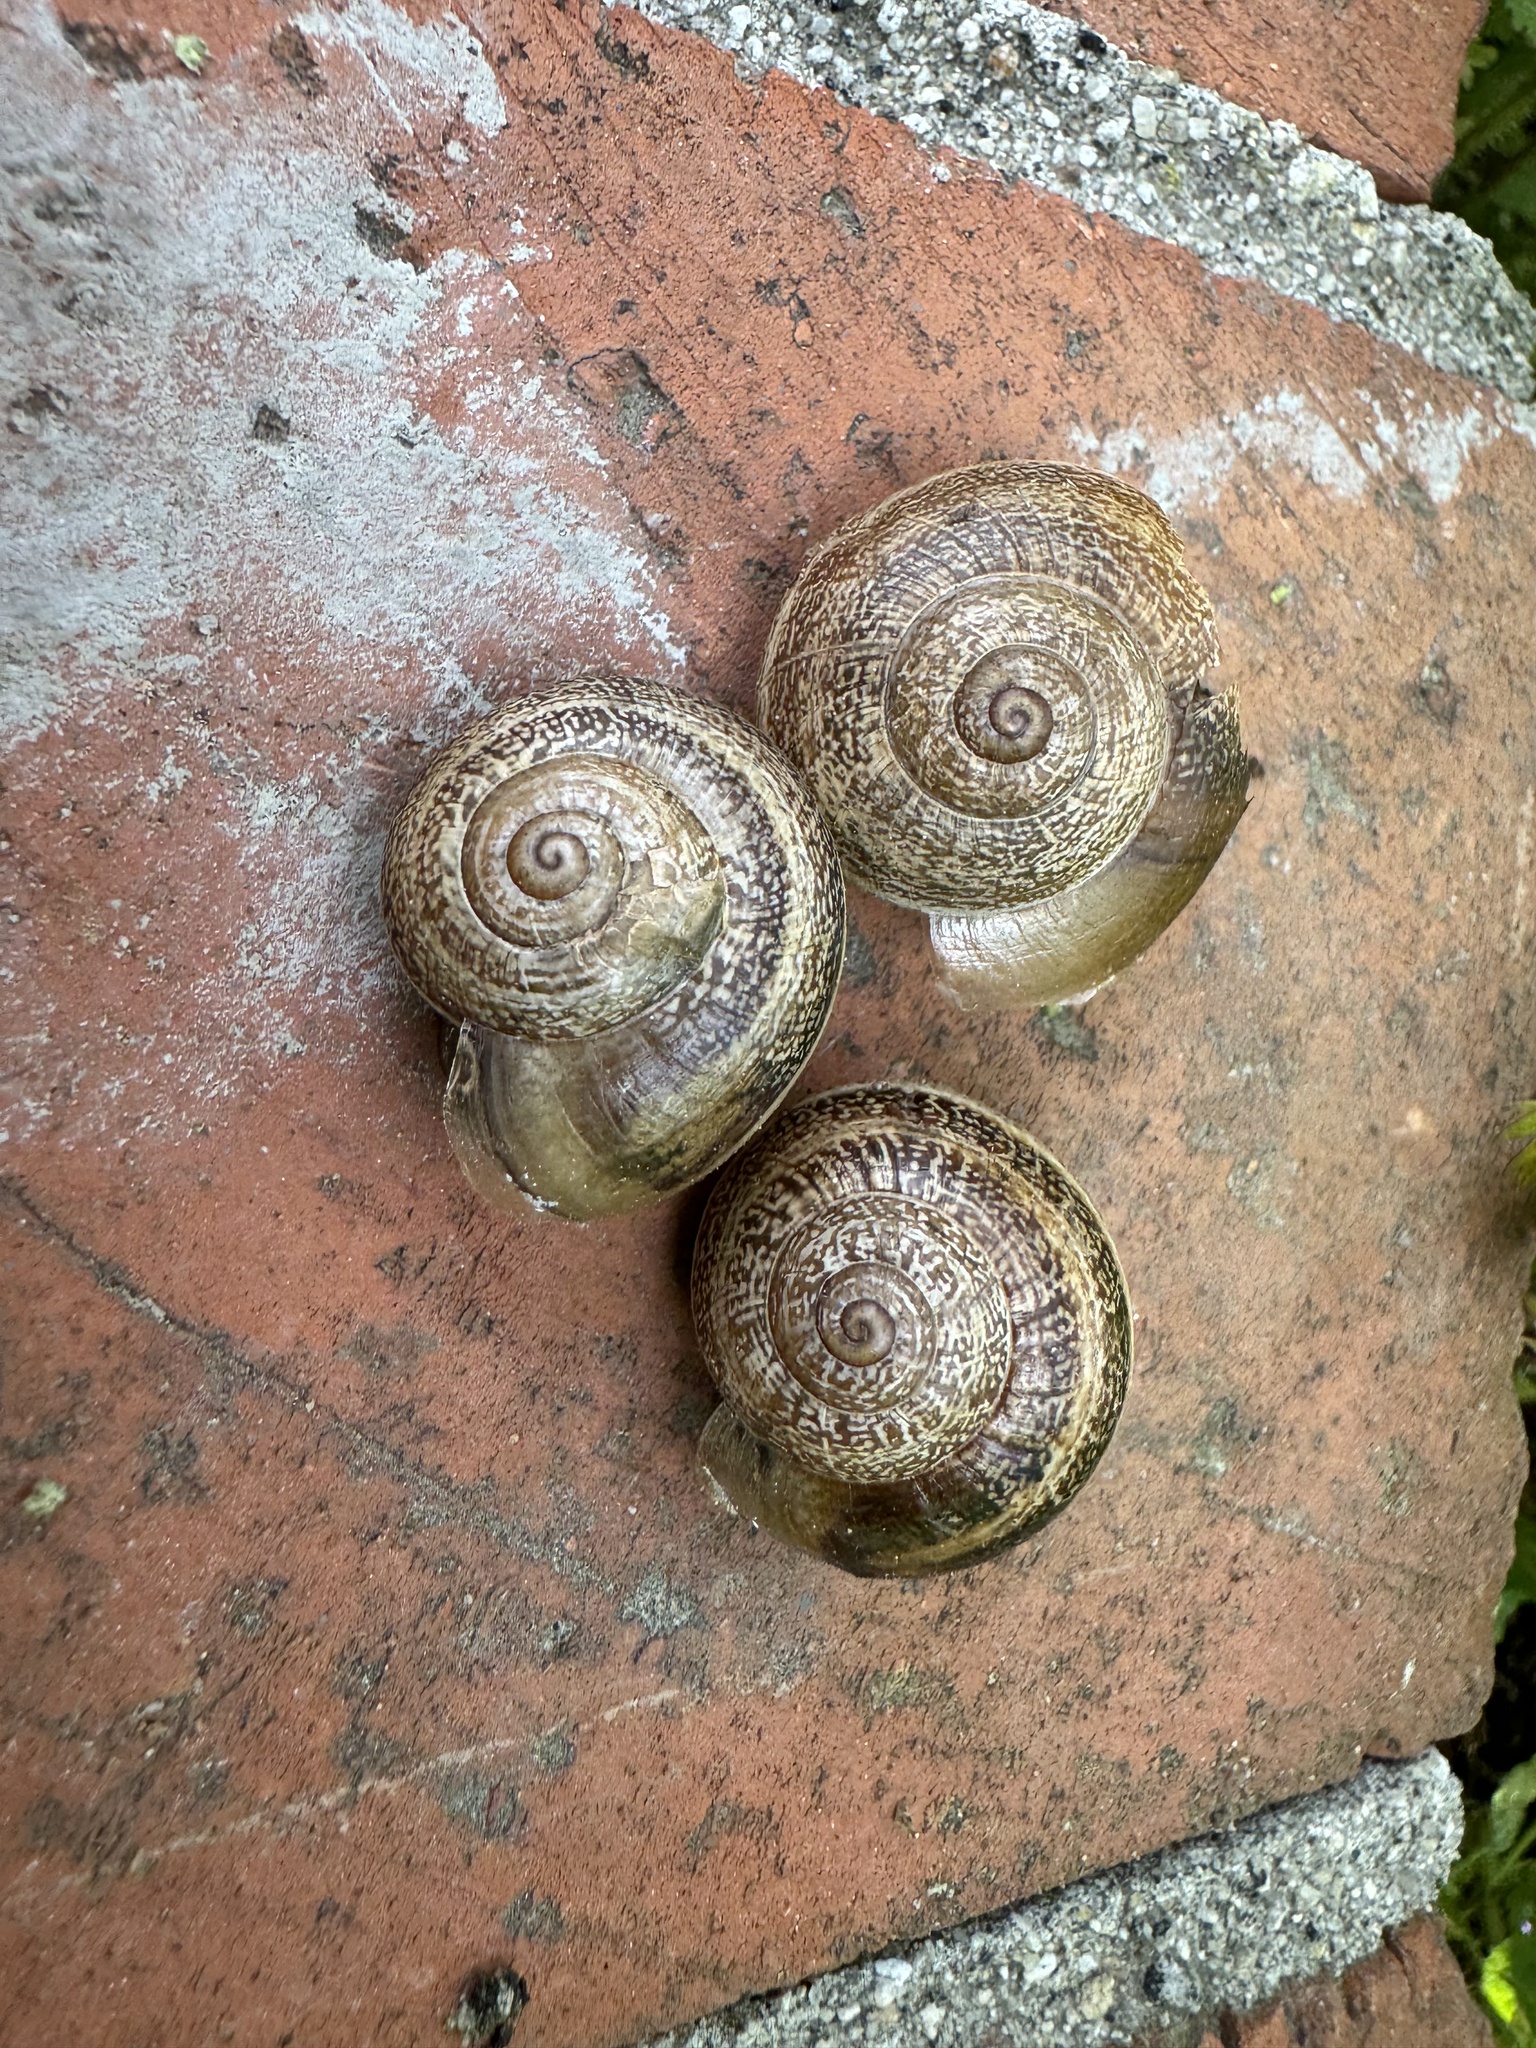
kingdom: Animalia
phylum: Mollusca
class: Gastropoda
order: Stylommatophora
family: Helicidae
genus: Otala
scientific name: Otala lactea
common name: Milk snail
